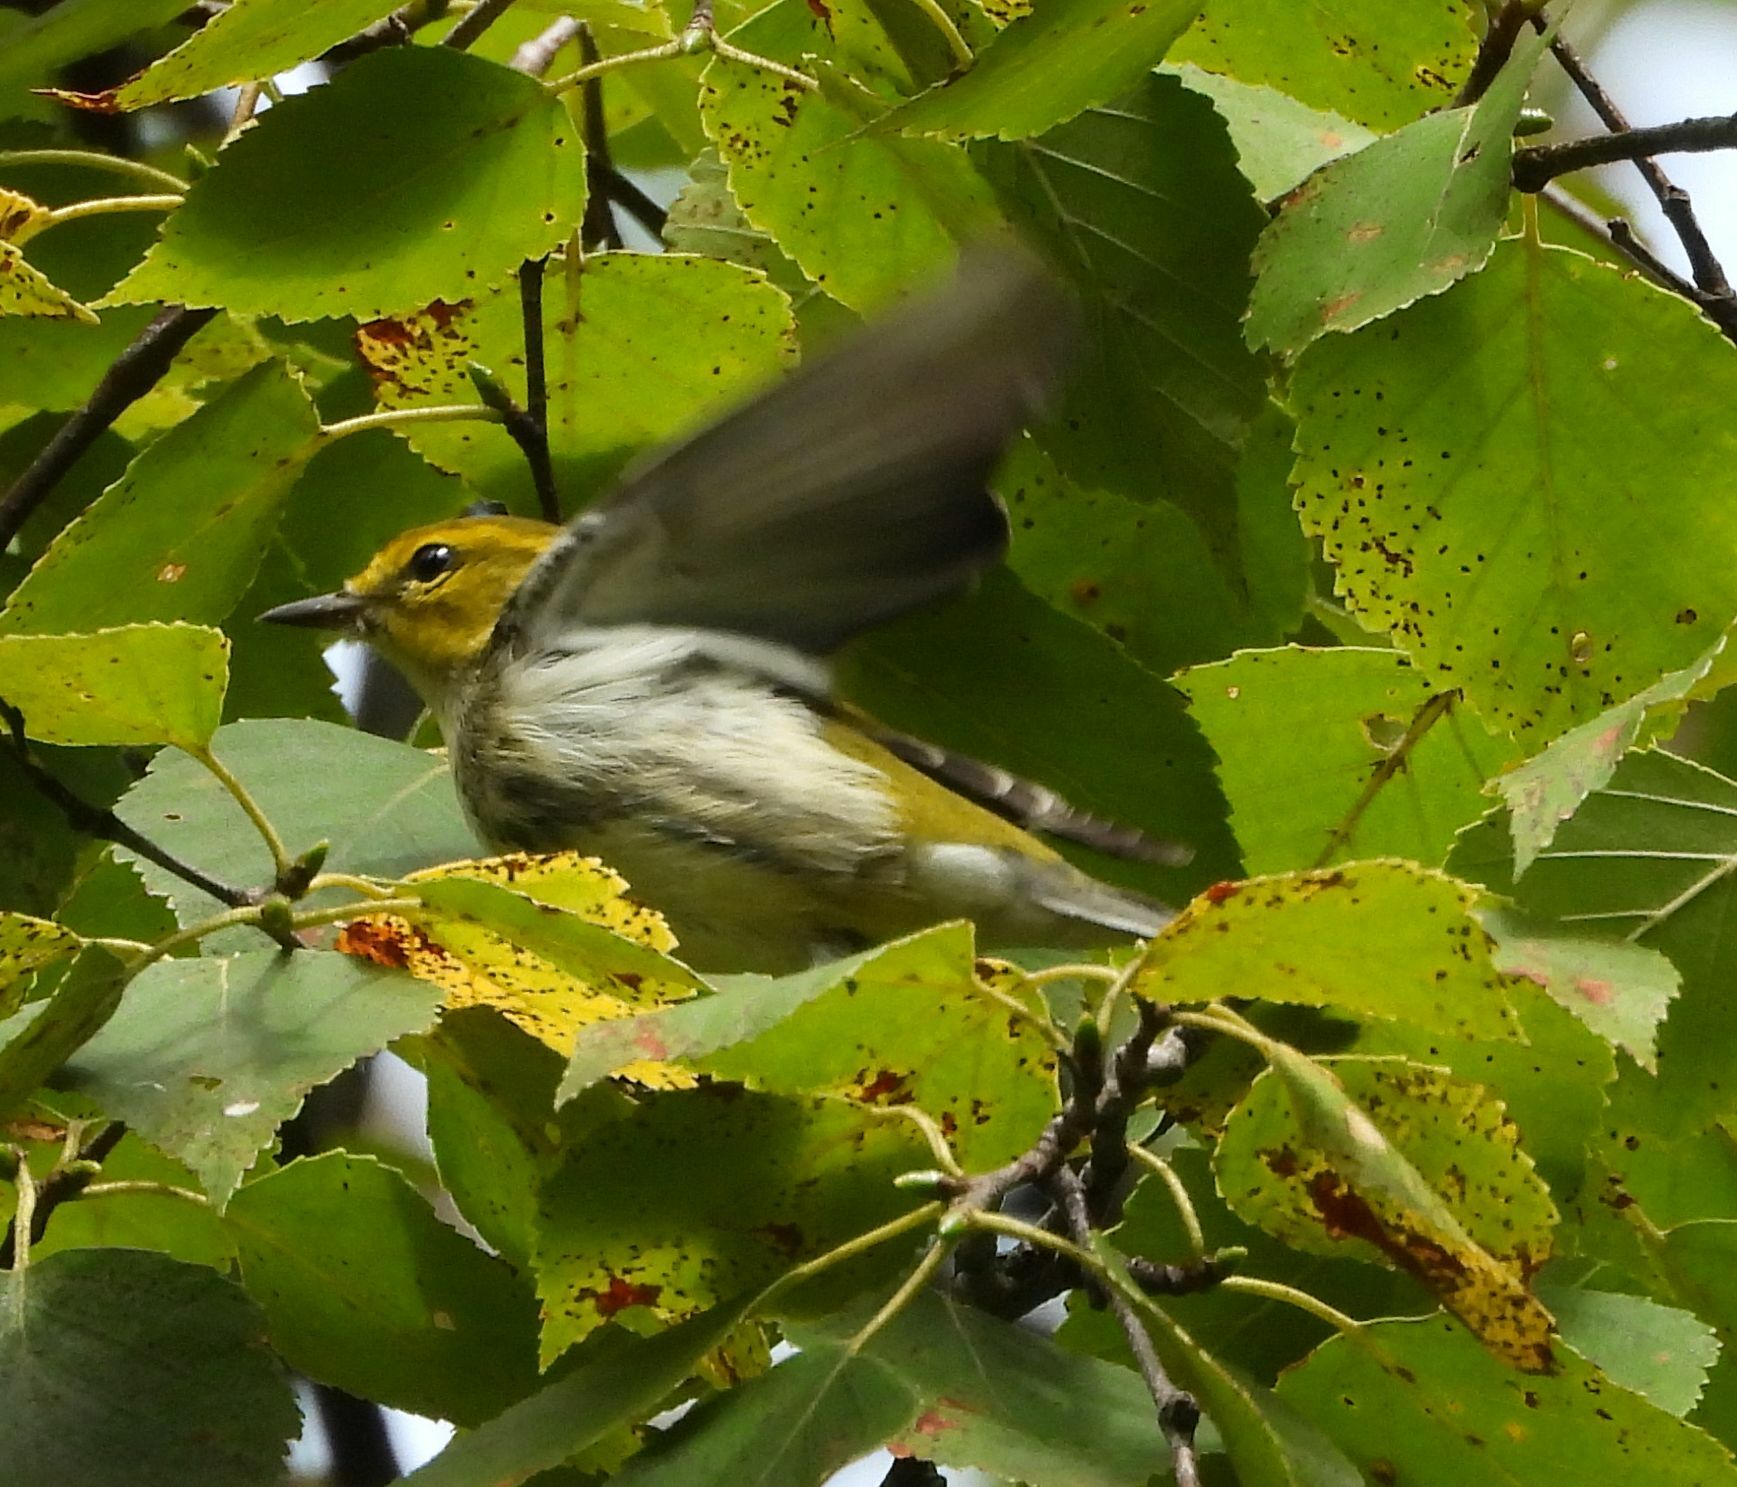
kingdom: Animalia
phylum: Chordata
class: Aves
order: Passeriformes
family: Parulidae
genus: Setophaga
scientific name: Setophaga virens
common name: Black-throated green warbler
